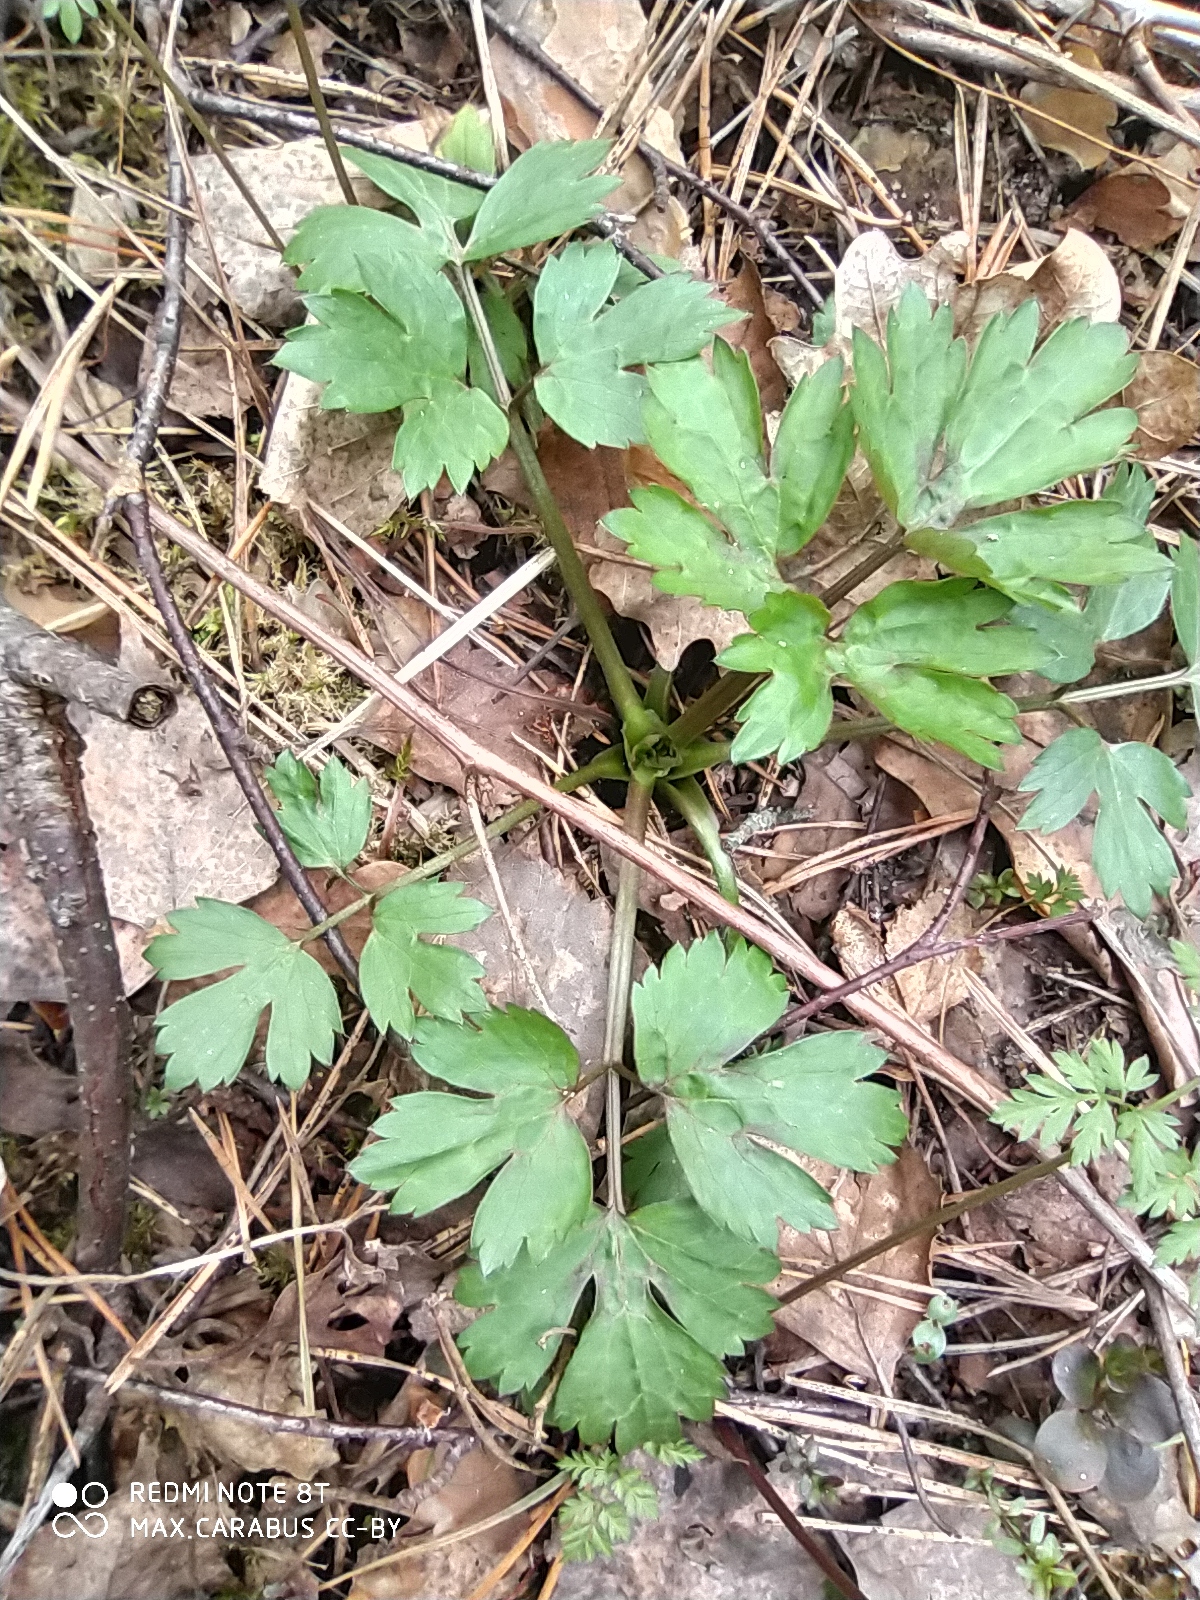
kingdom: Plantae
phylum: Tracheophyta
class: Magnoliopsida
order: Ranunculales
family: Ranunculaceae
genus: Ranunculus
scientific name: Ranunculus repens
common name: Creeping buttercup
